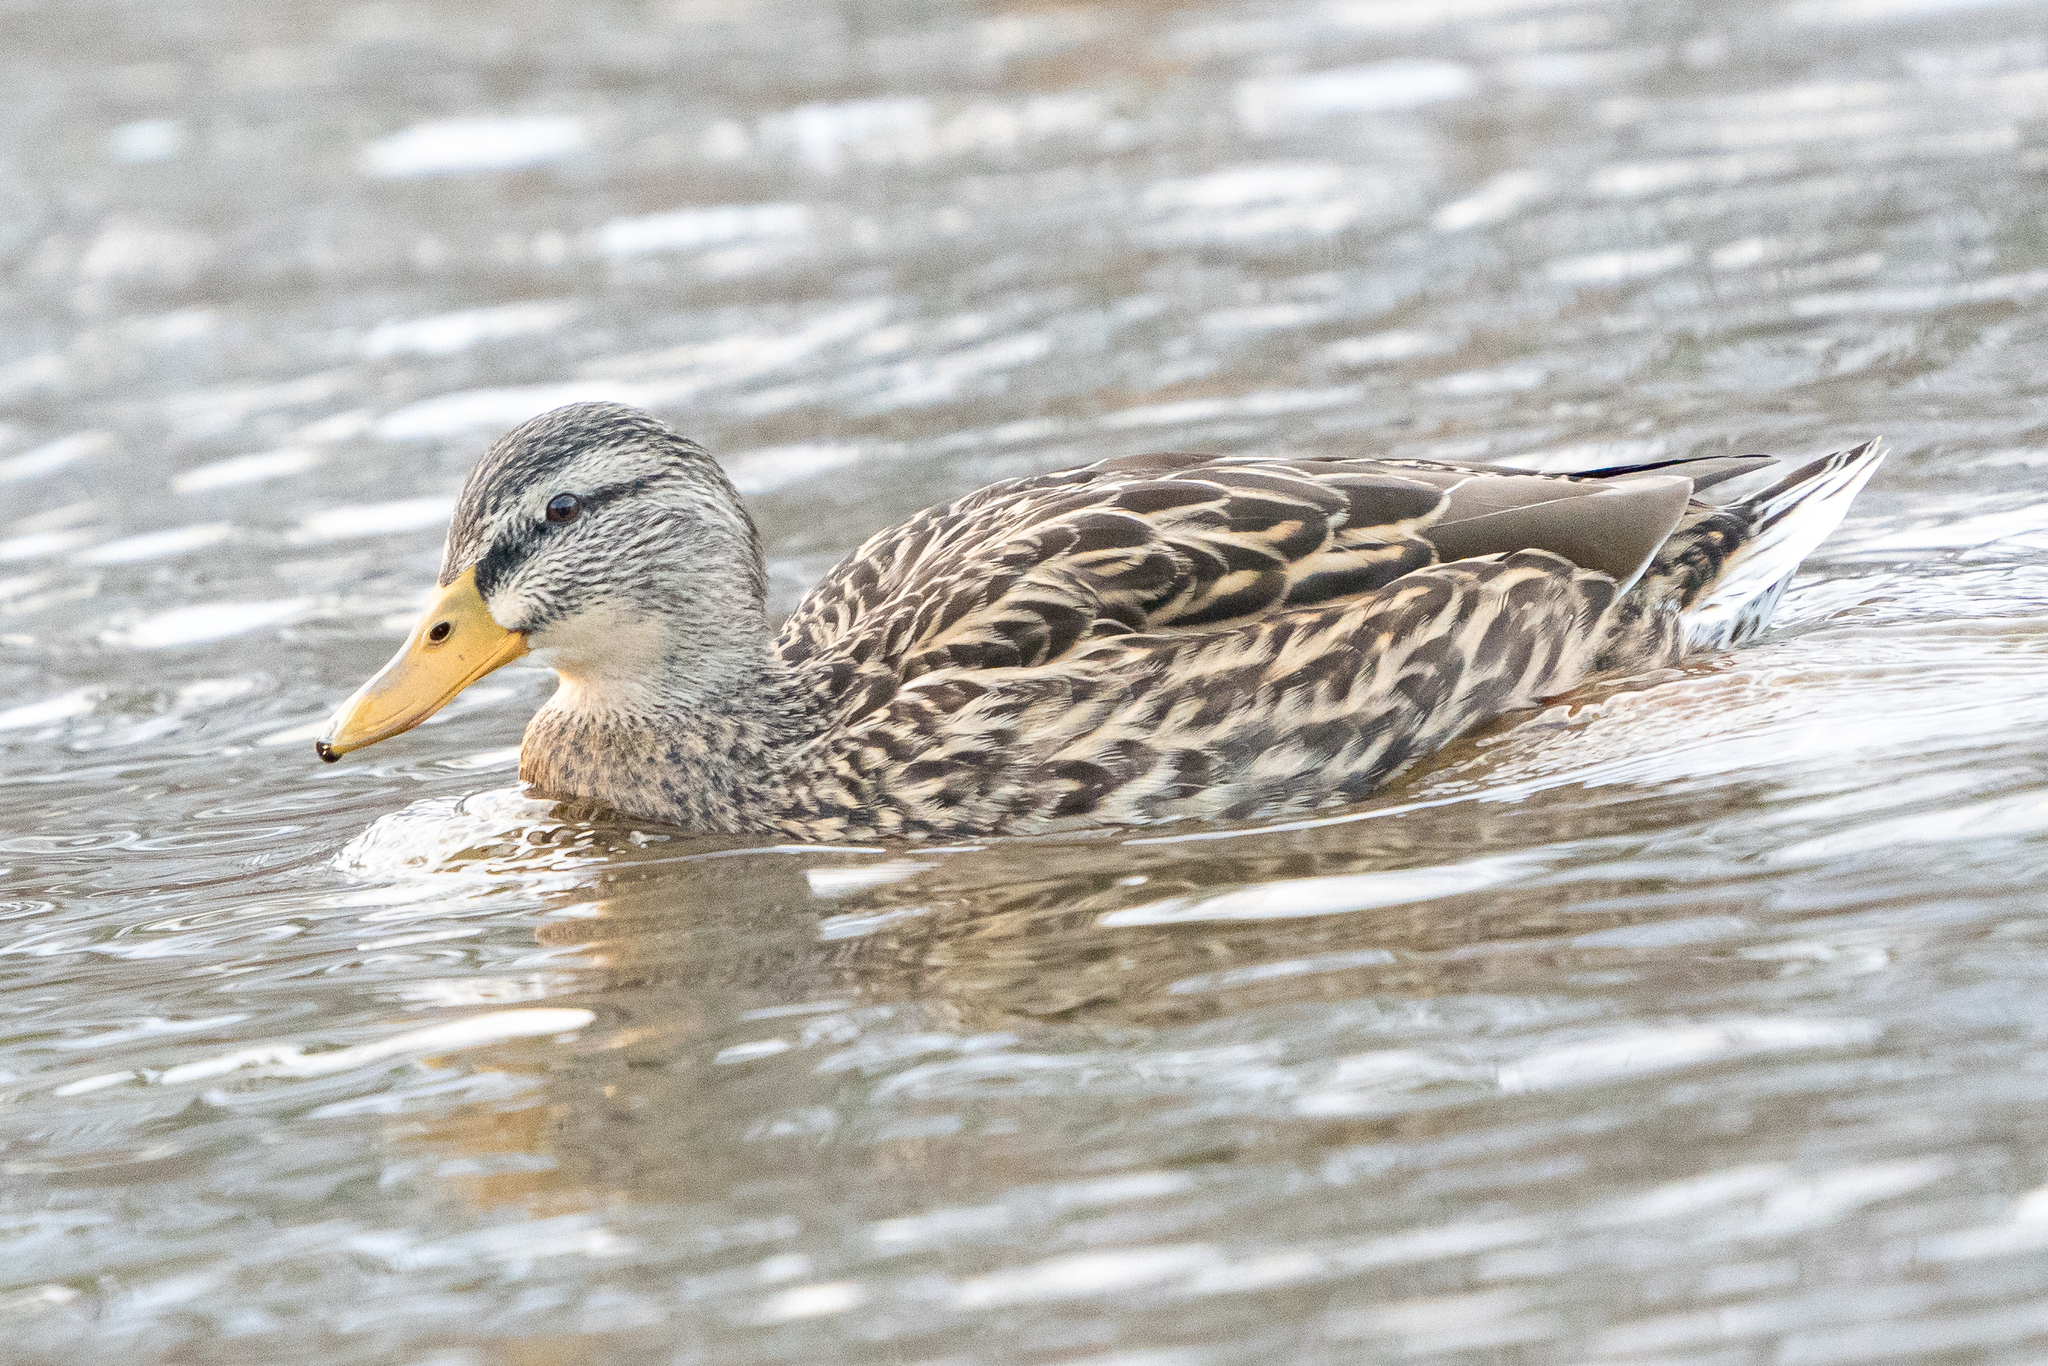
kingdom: Animalia
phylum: Chordata
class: Aves
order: Anseriformes
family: Anatidae
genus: Anas
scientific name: Anas platyrhynchos
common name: Mallard
